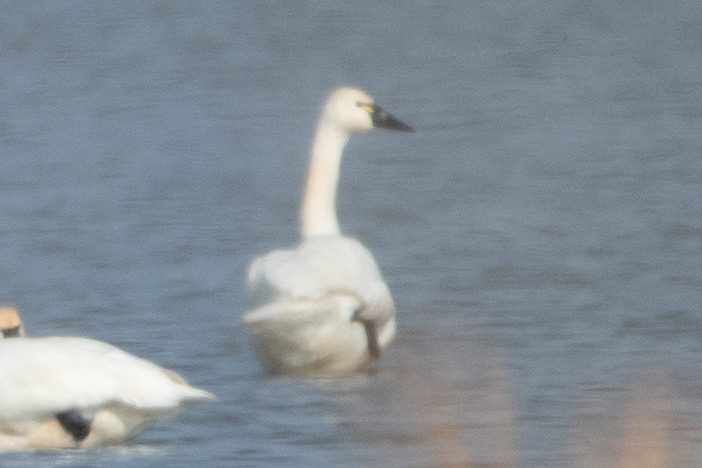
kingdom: Animalia
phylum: Chordata
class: Aves
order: Anseriformes
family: Anatidae
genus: Cygnus
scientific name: Cygnus columbianus
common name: Tundra swan
